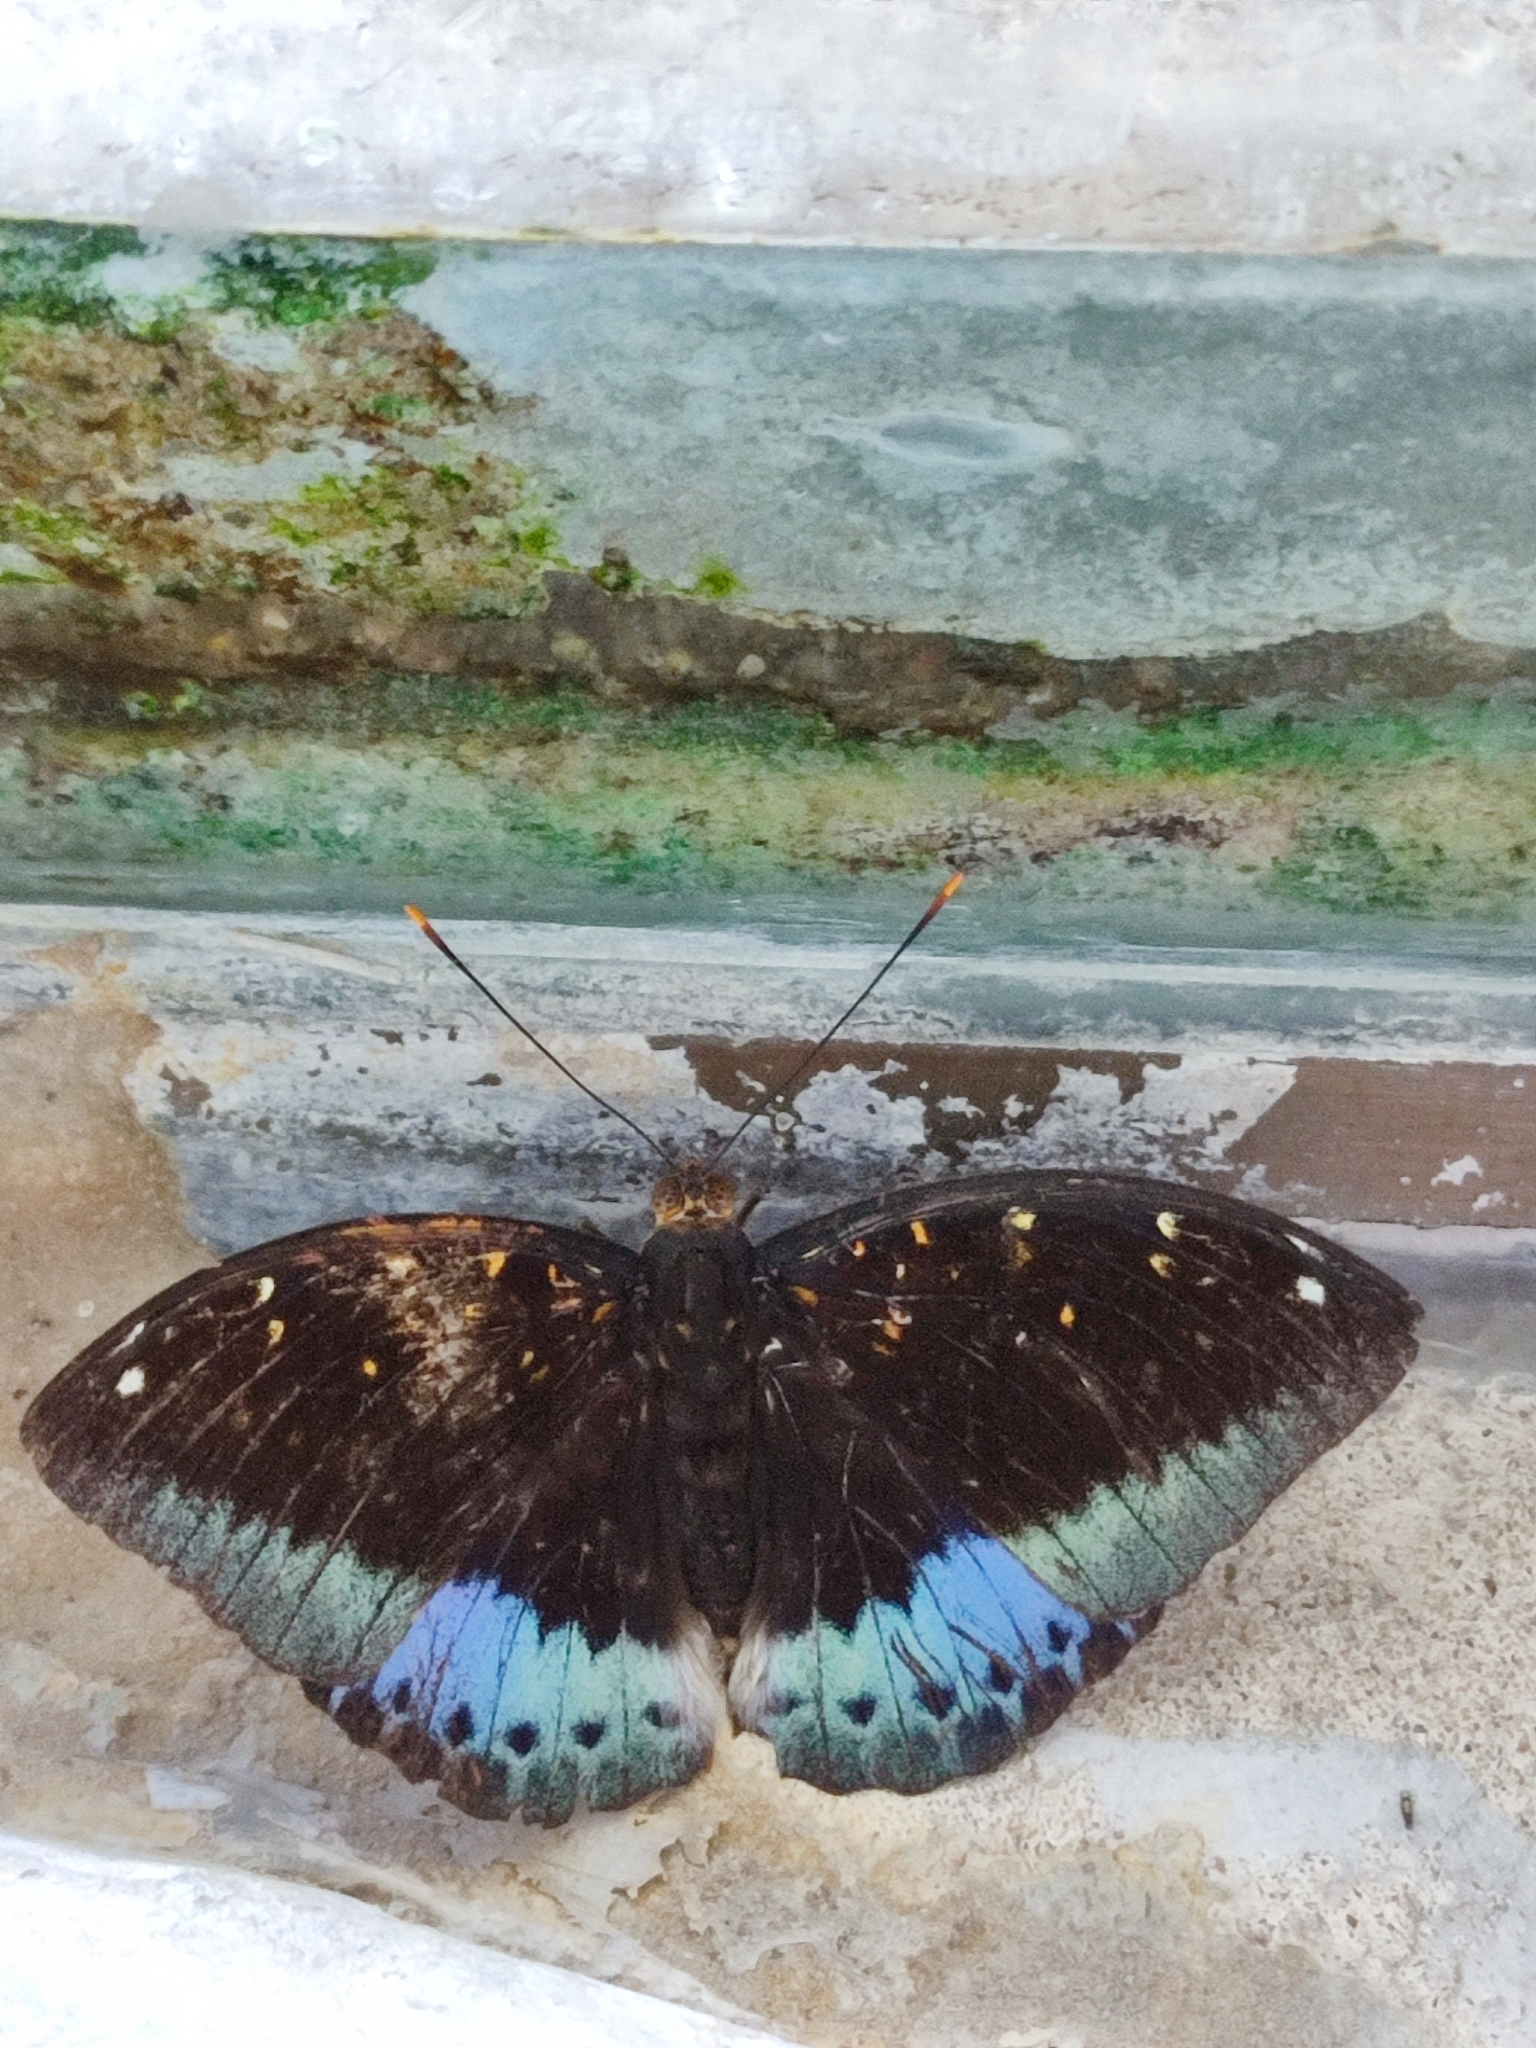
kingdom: Animalia
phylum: Arthropoda
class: Insecta
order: Lepidoptera
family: Nymphalidae
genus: Lexias
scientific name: Lexias pardalis
